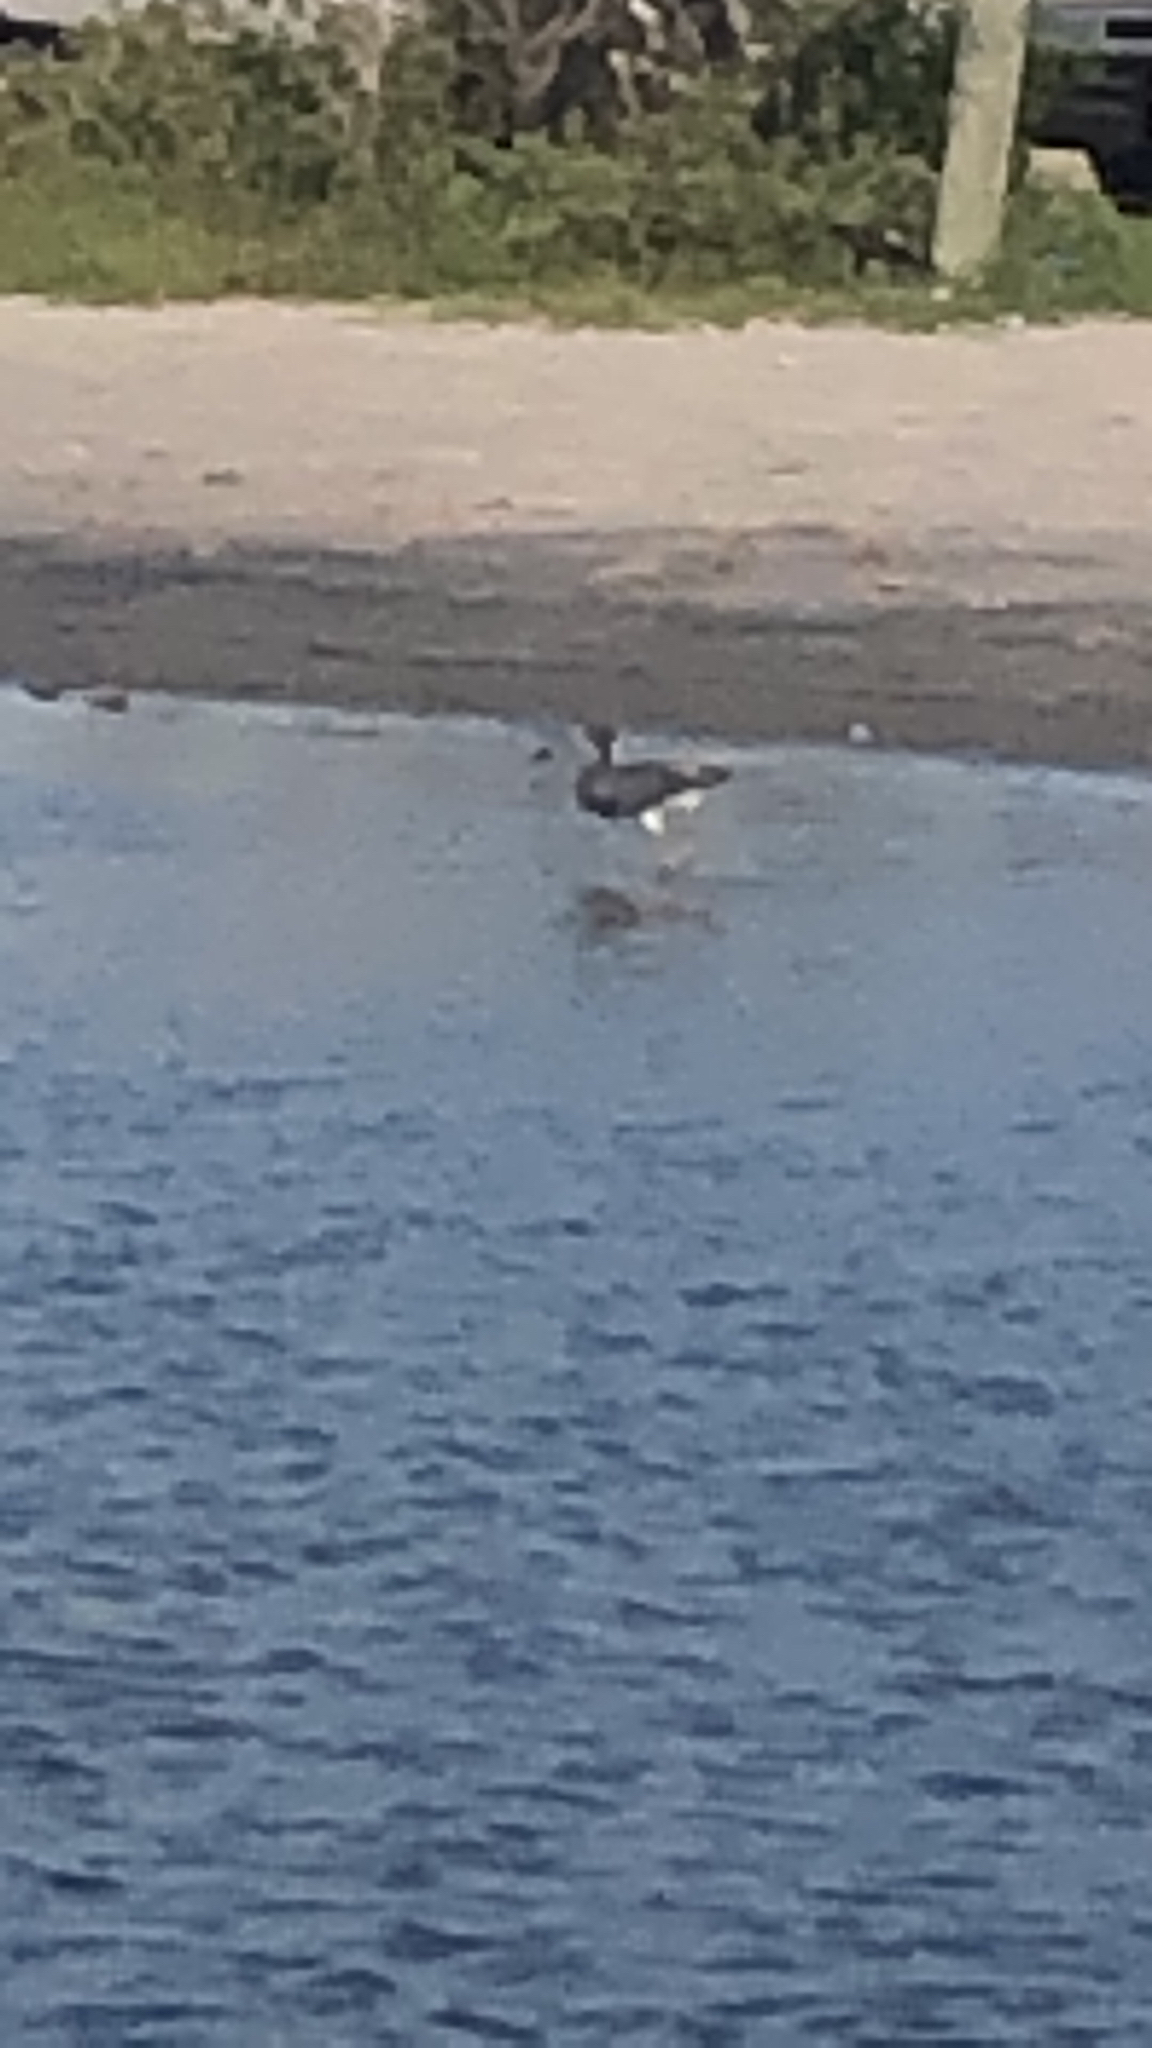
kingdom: Animalia
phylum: Chordata
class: Aves
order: Pelecaniformes
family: Ardeidae
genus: Egretta
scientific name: Egretta tricolor
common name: Tricolored heron
